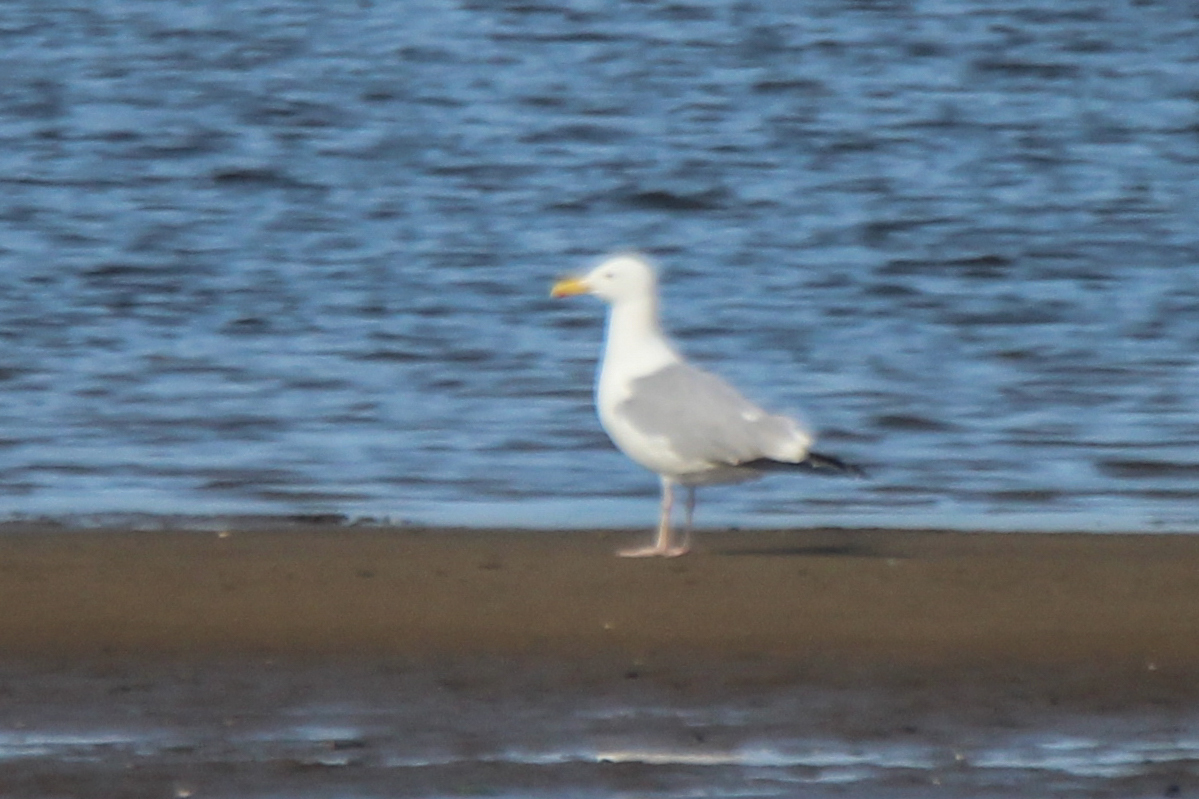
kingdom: Animalia
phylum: Chordata
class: Aves
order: Charadriiformes
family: Laridae
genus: Larus
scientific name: Larus vegae
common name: Vega gull
